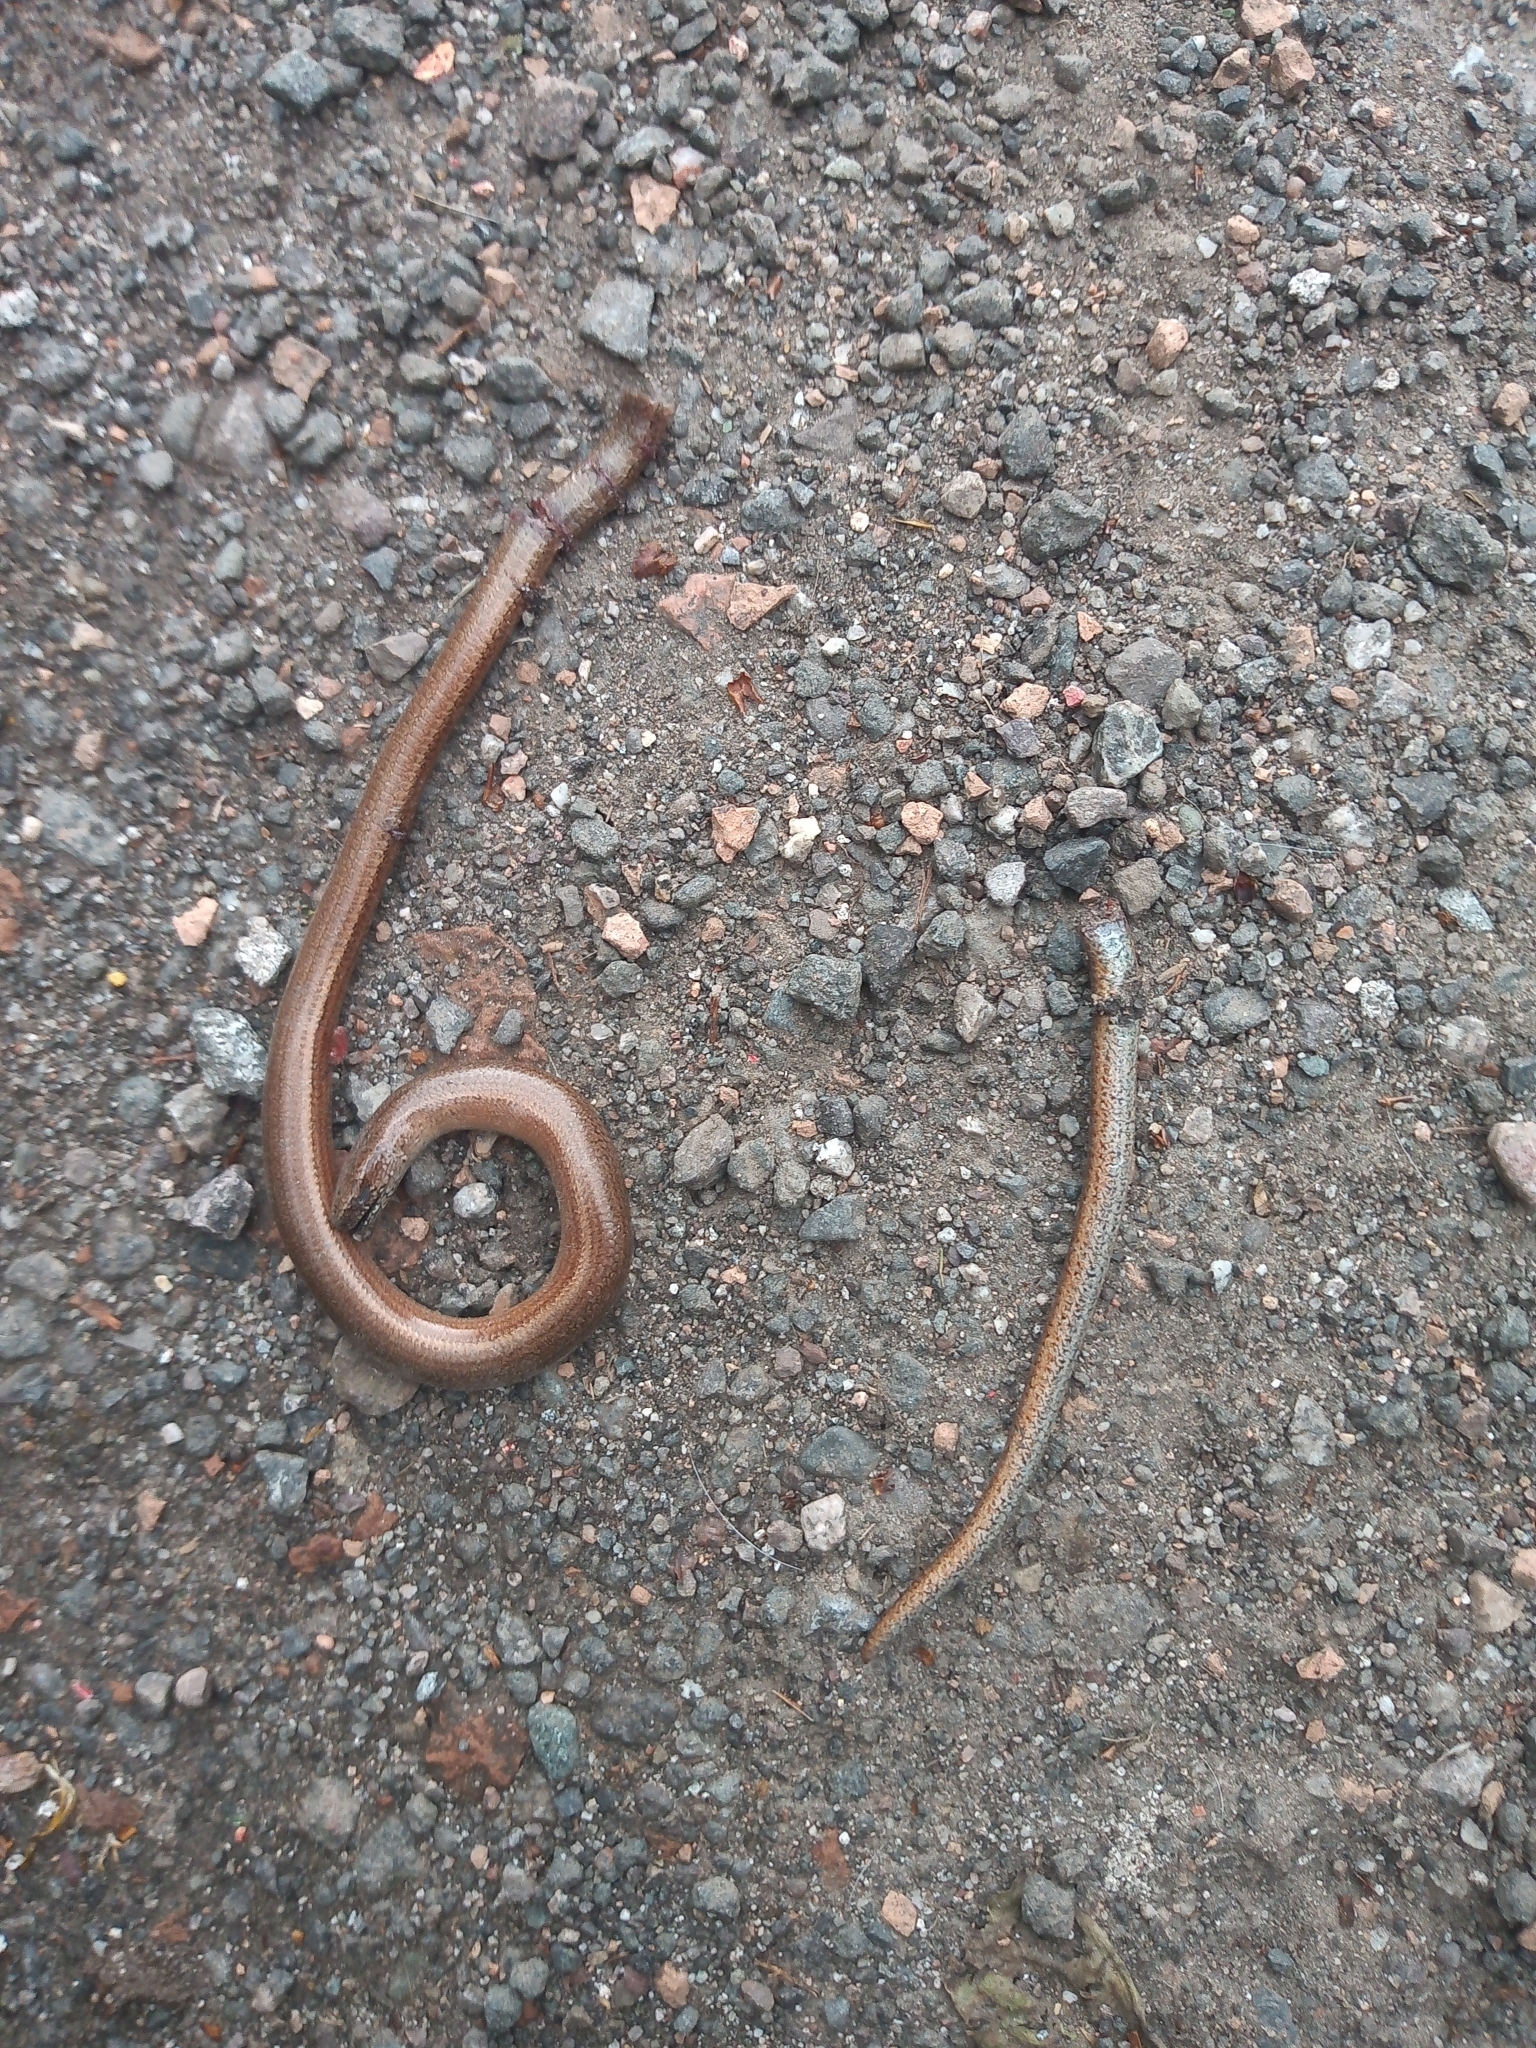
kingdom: Animalia
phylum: Chordata
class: Squamata
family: Anguidae
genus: Anguis
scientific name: Anguis fragilis
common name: Slow worm
